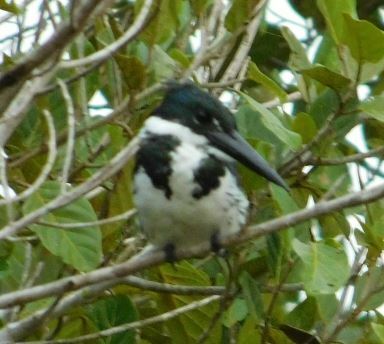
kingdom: Animalia
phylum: Chordata
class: Aves
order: Coraciiformes
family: Alcedinidae
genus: Chloroceryle
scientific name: Chloroceryle amazona
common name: Amazon kingfisher
